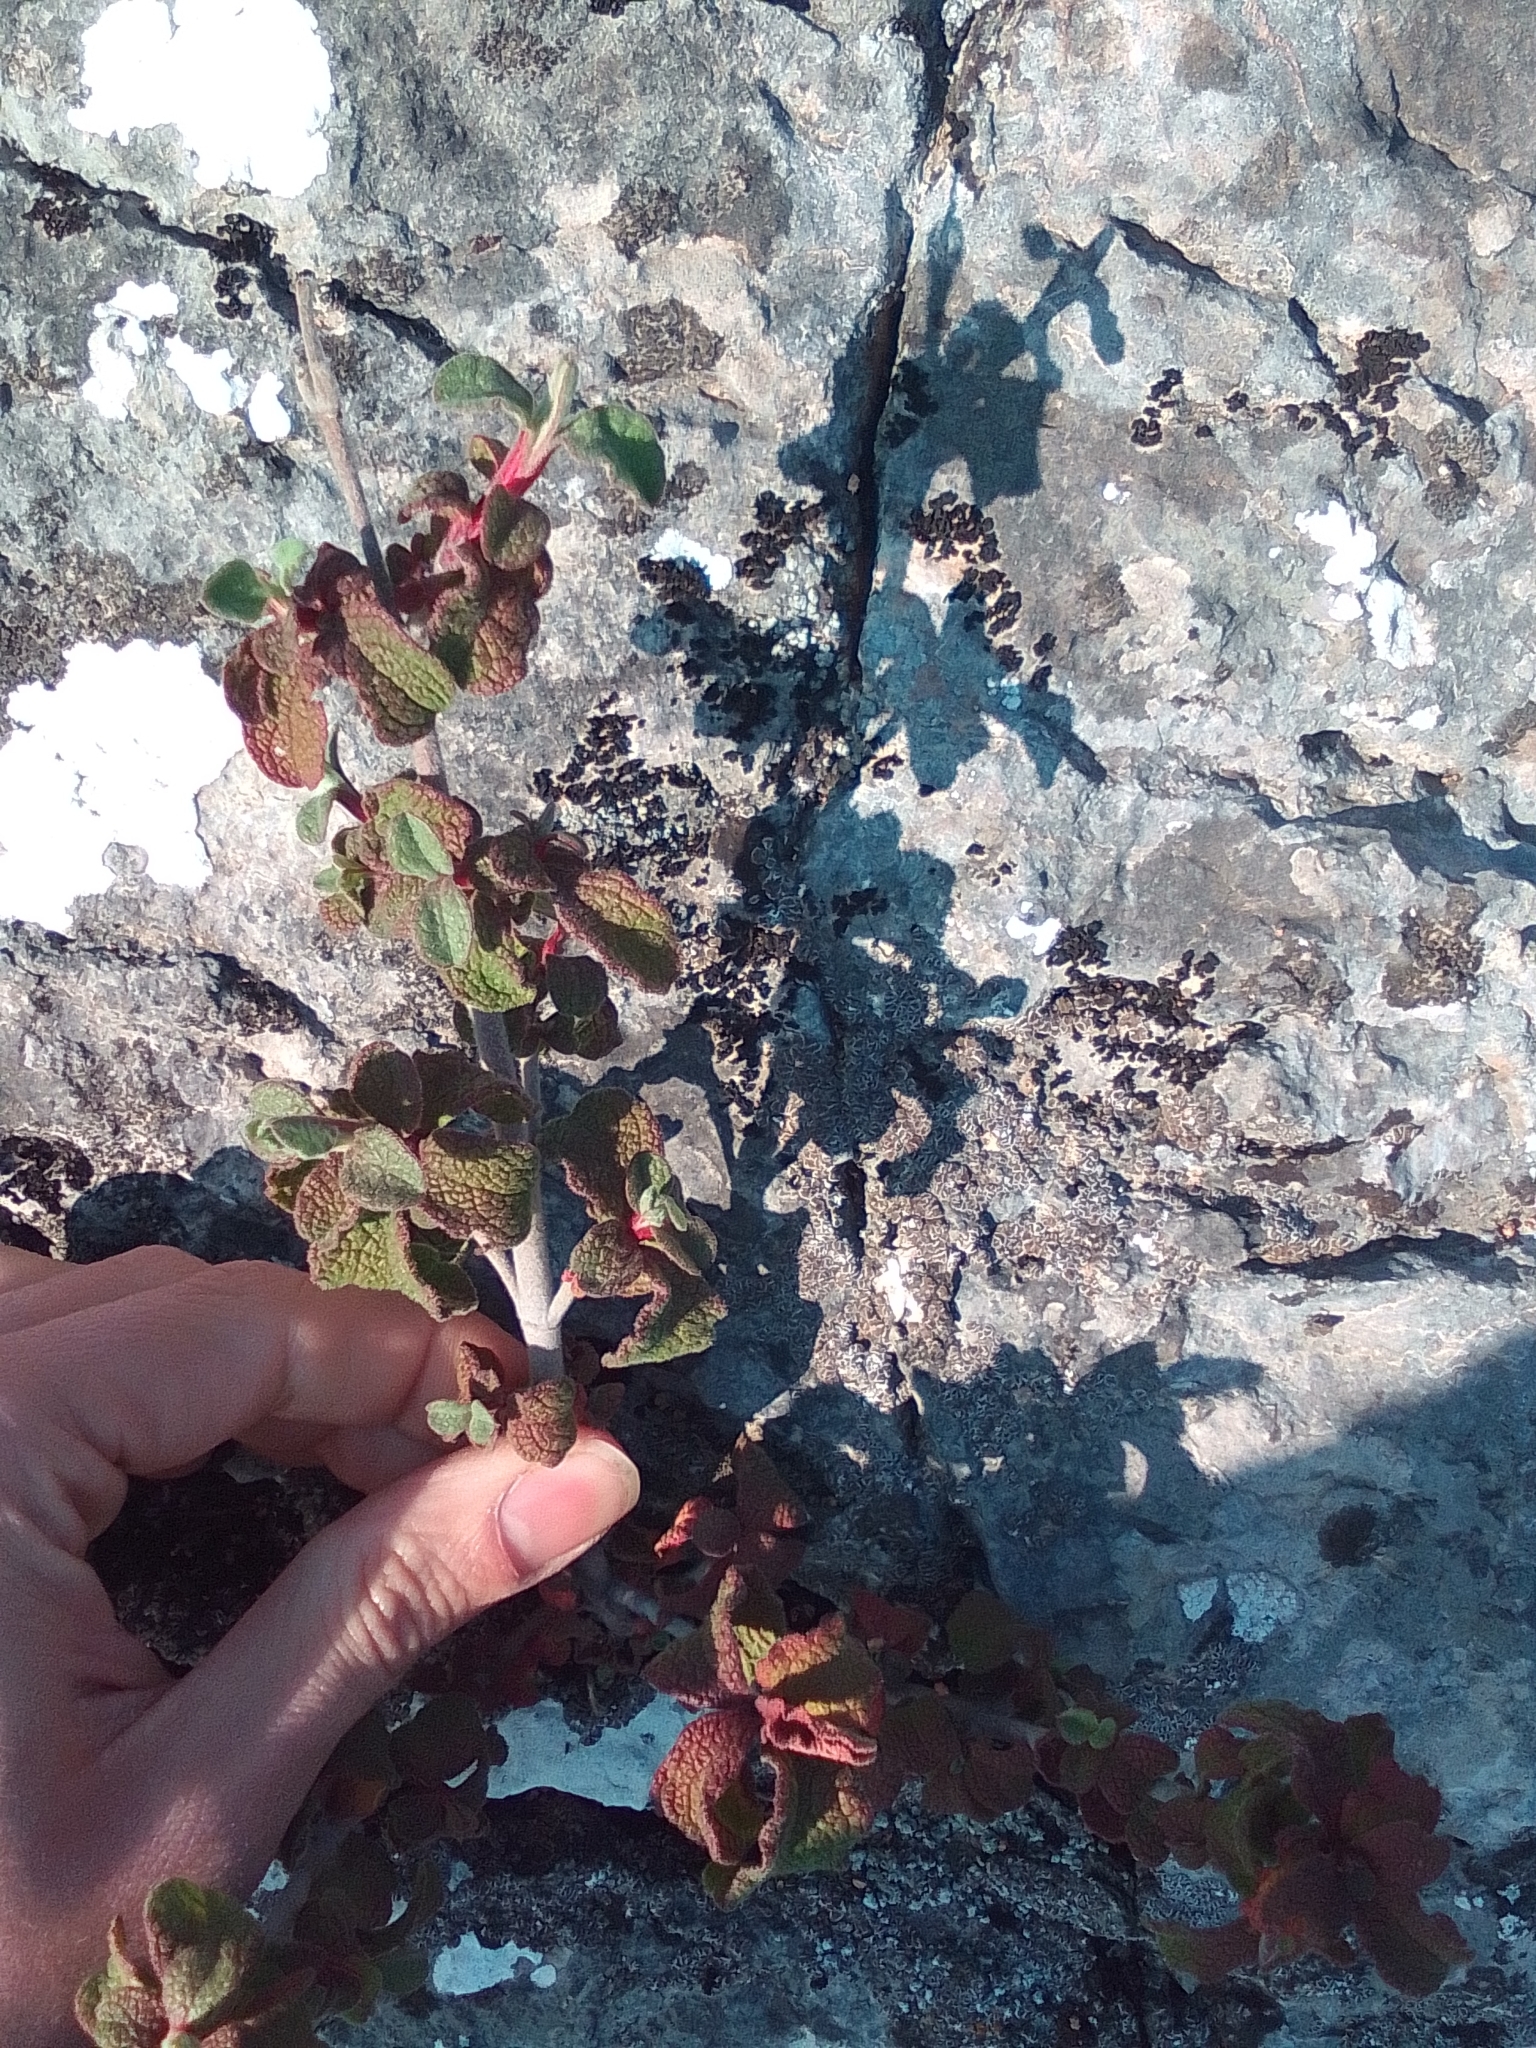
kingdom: Plantae
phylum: Tracheophyta
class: Magnoliopsida
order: Malvales
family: Cistaceae
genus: Cistus
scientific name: Cistus tauricus
